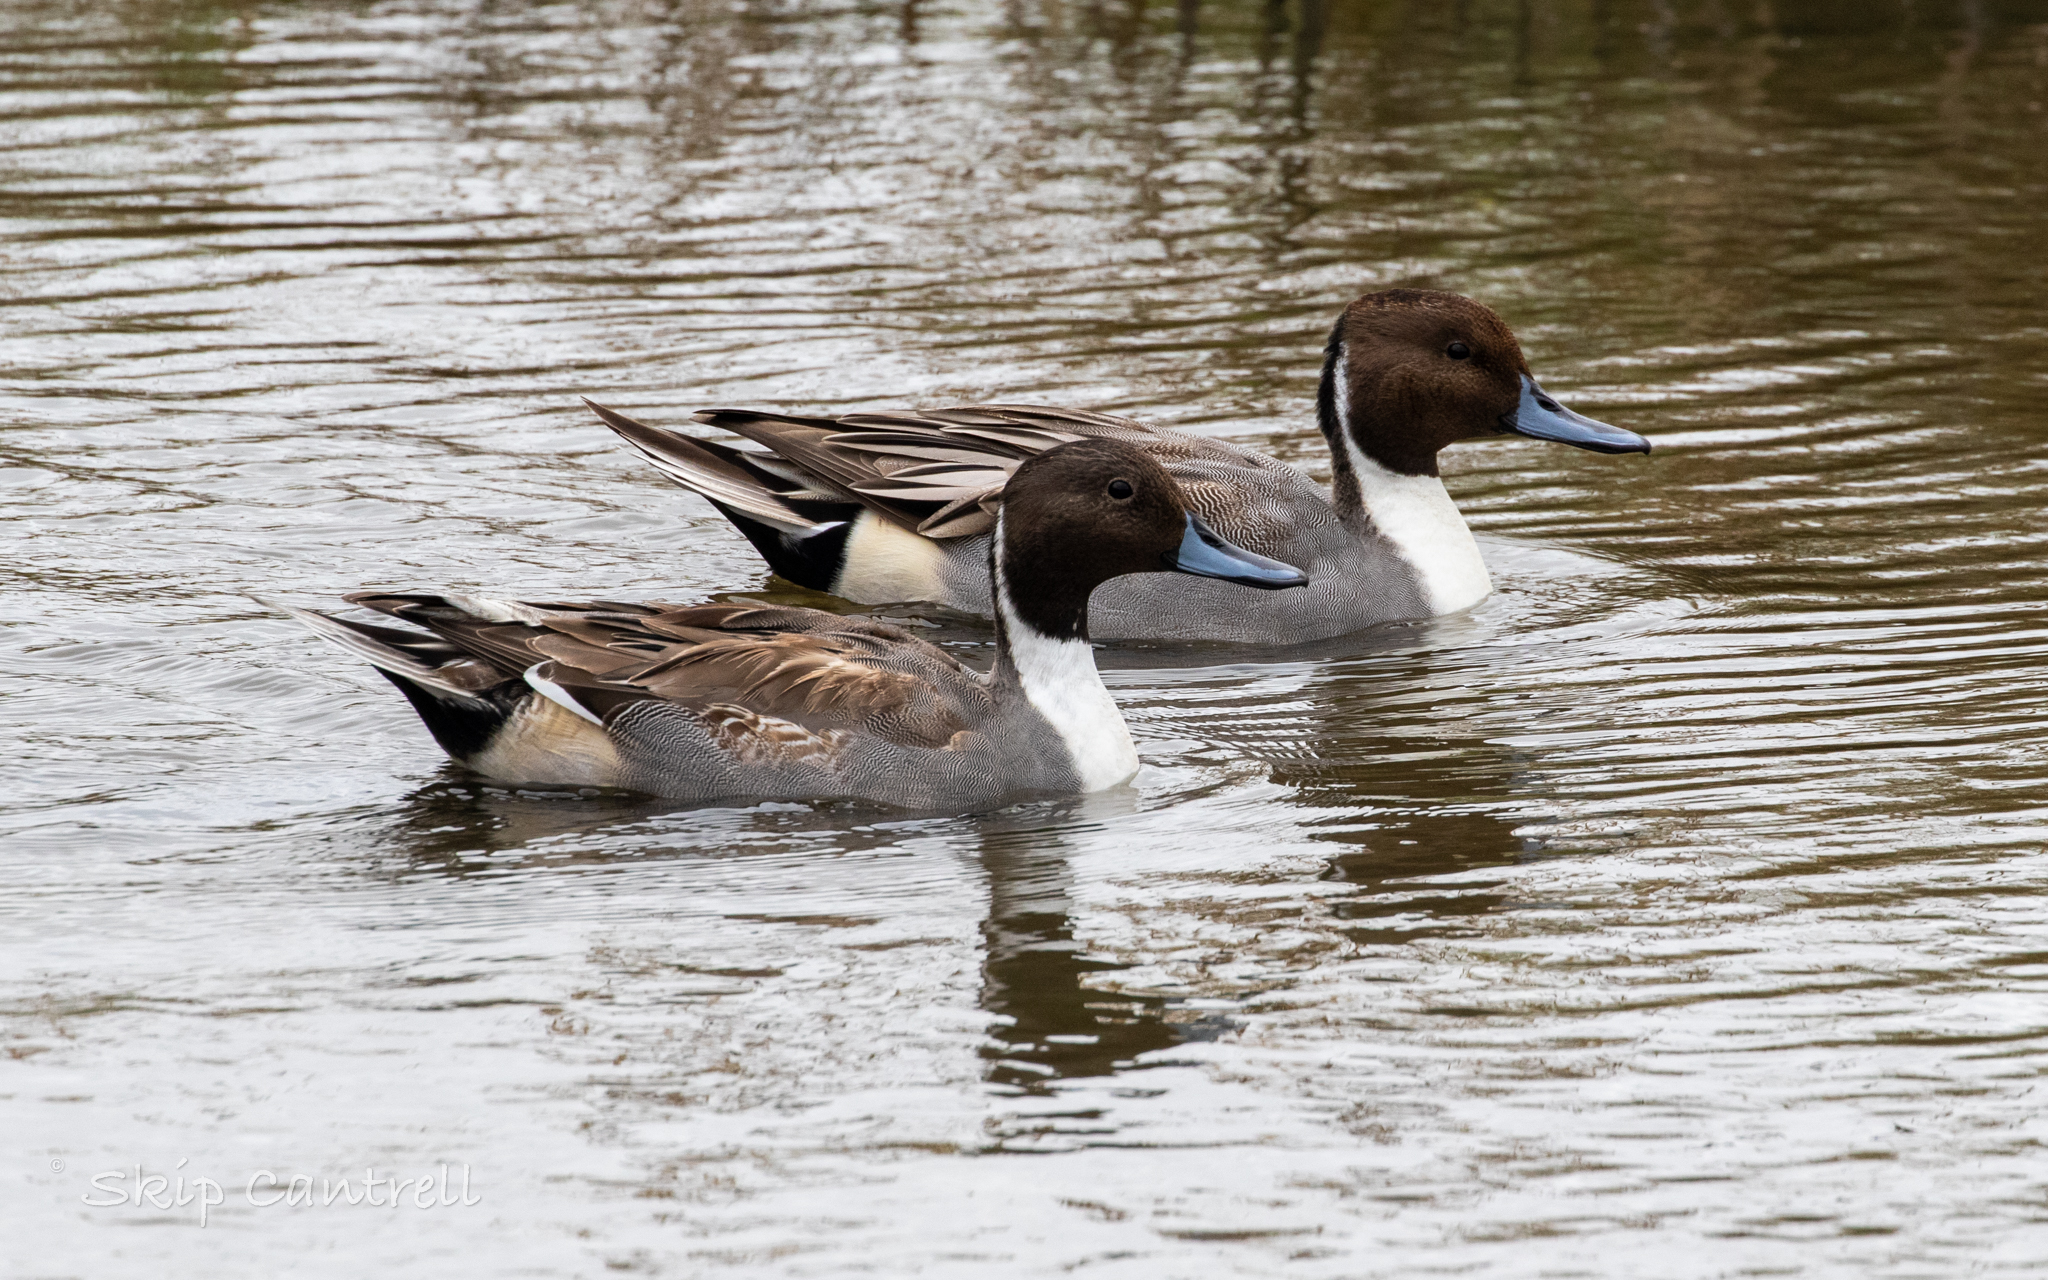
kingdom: Animalia
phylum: Chordata
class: Aves
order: Anseriformes
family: Anatidae
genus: Anas
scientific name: Anas acuta
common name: Northern pintail
